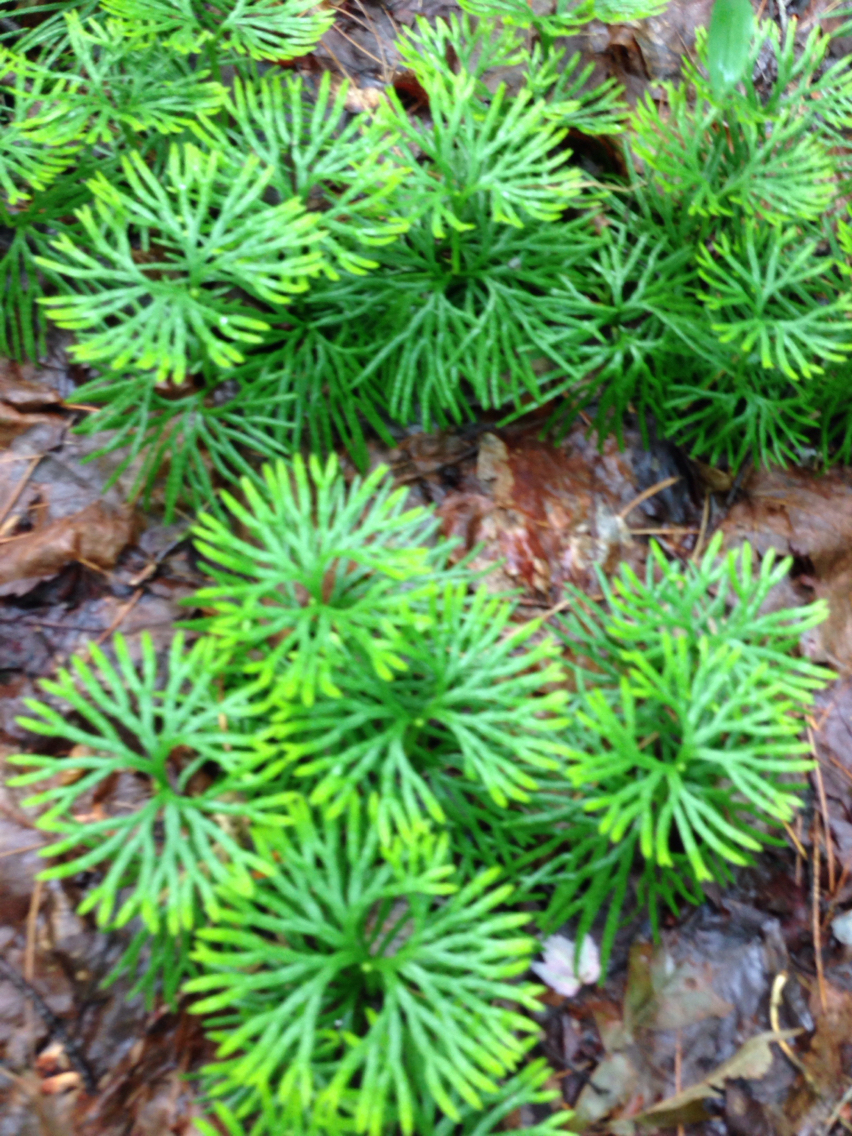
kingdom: Plantae
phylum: Tracheophyta
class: Lycopodiopsida
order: Lycopodiales
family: Lycopodiaceae
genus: Diphasiastrum
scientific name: Diphasiastrum digitatum
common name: Southern running-pine
